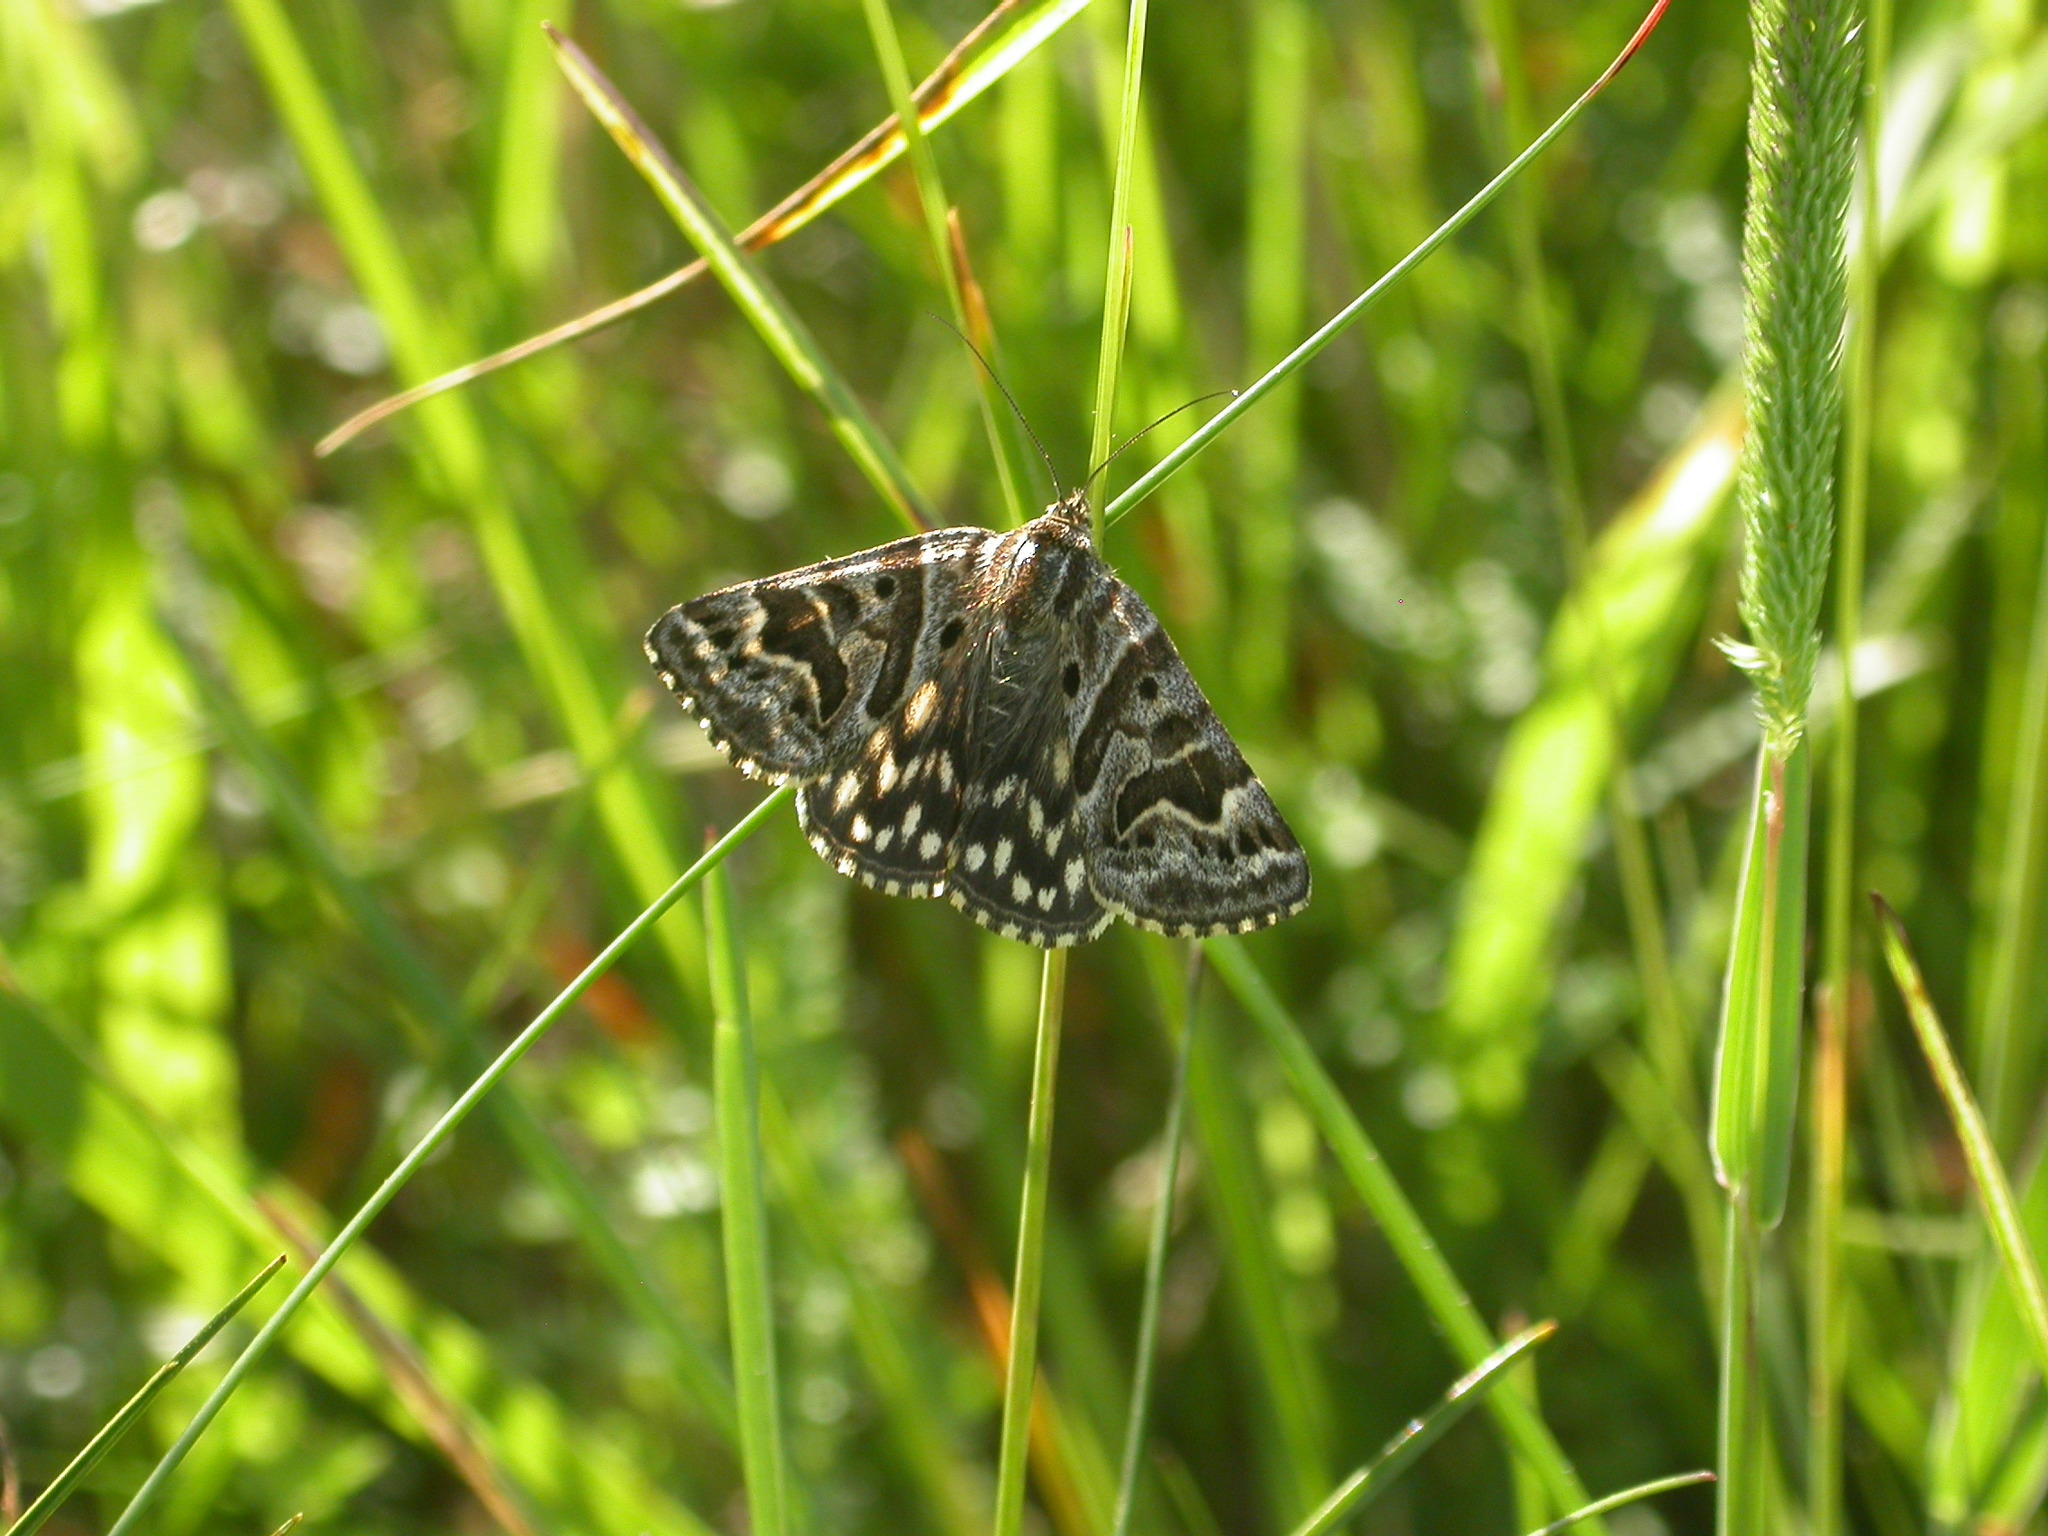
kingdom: Animalia
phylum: Arthropoda
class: Insecta
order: Lepidoptera
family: Erebidae
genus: Callistege
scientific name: Callistege mi
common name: Mother shipton
